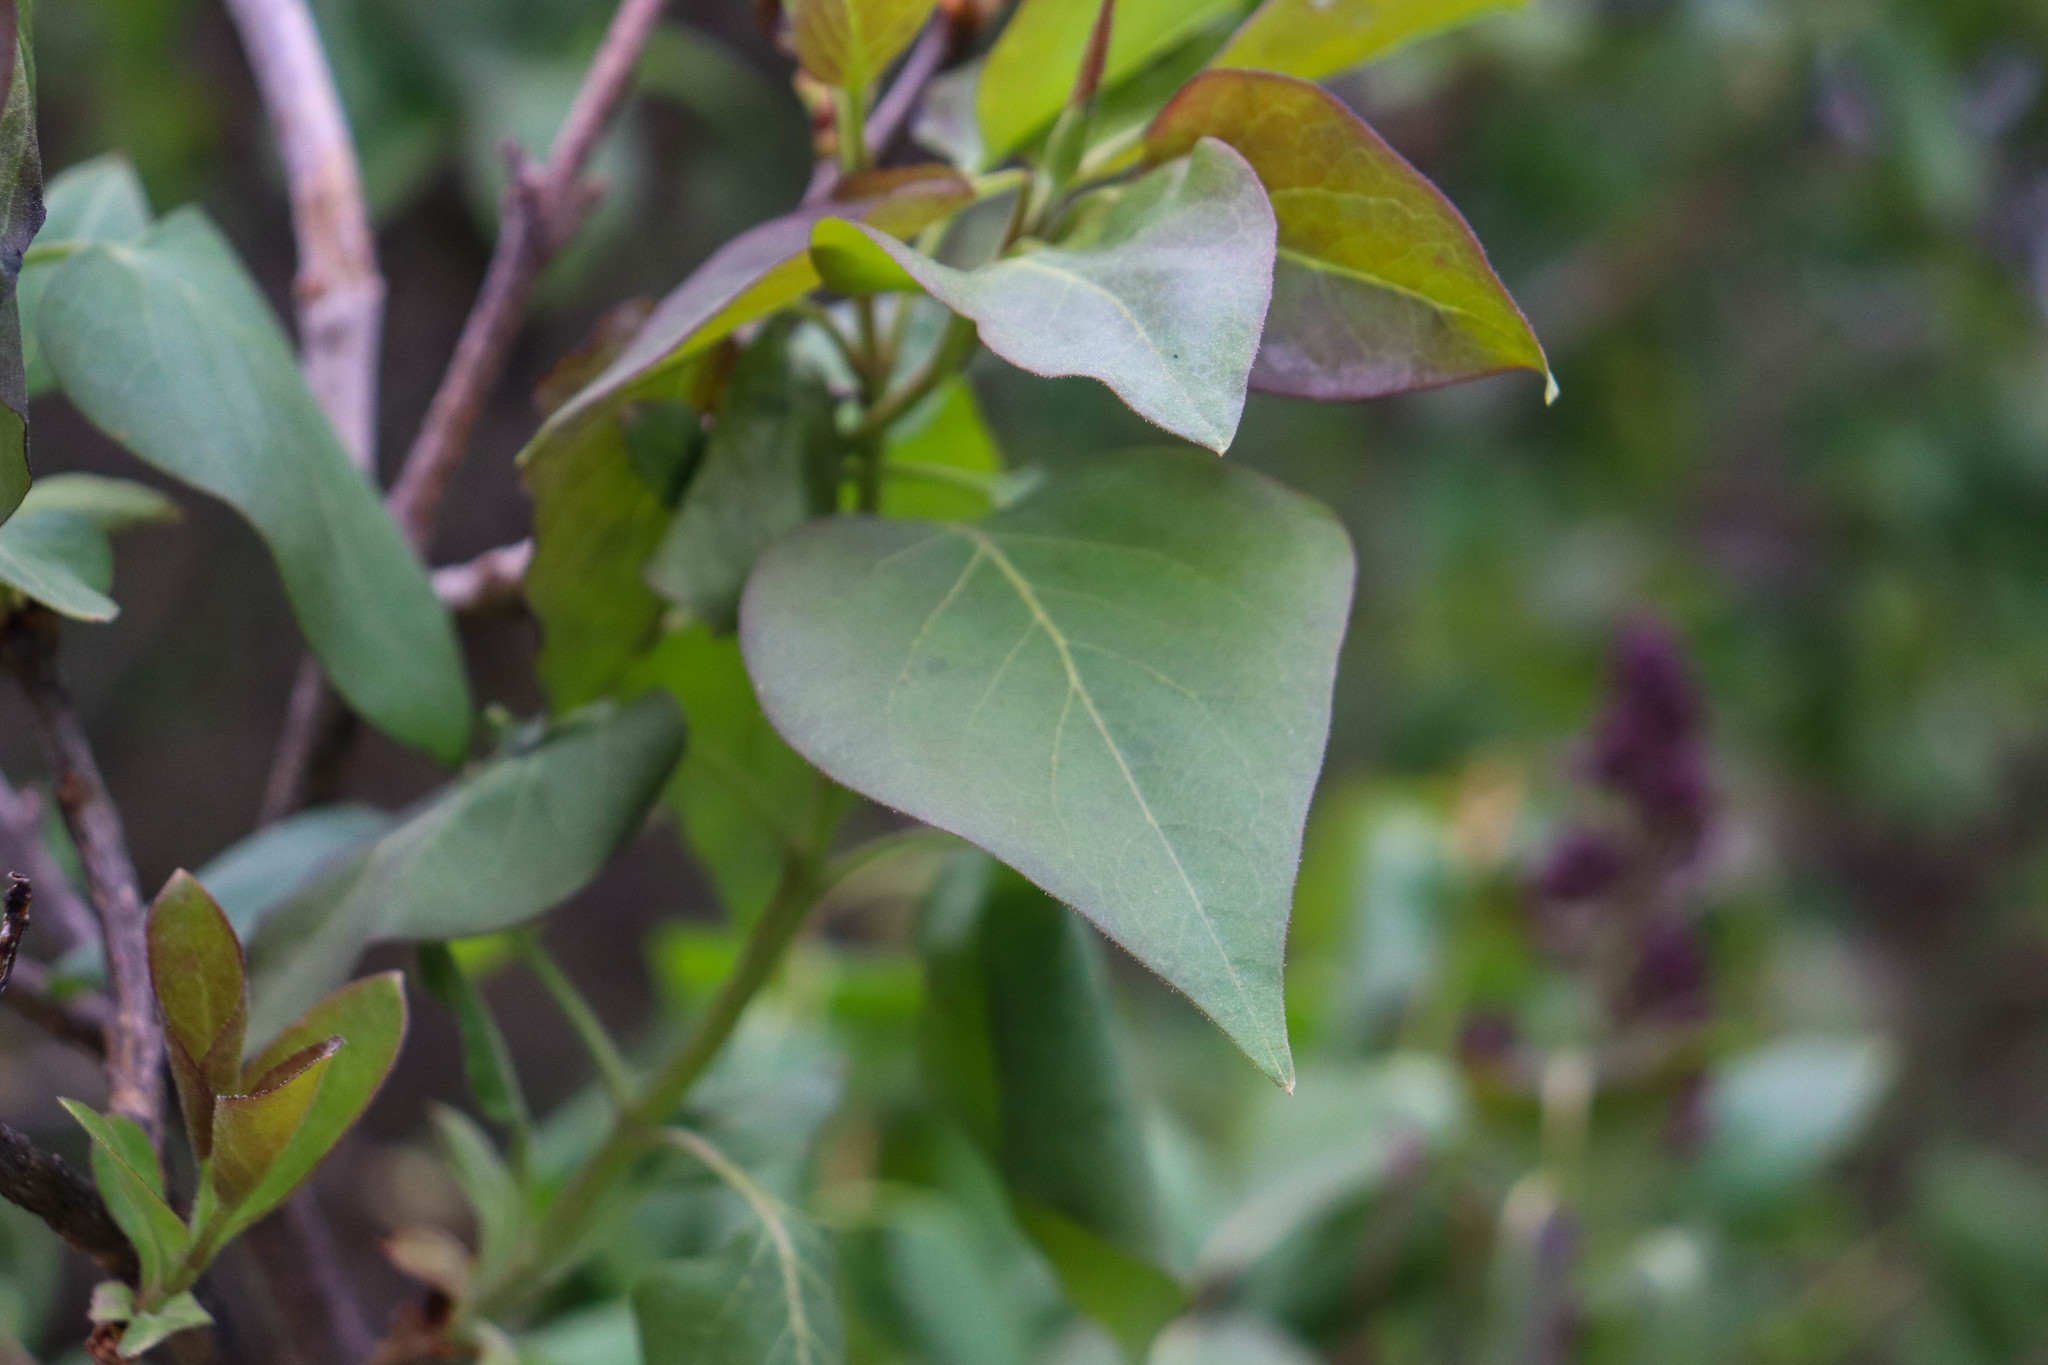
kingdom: Plantae
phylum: Tracheophyta
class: Magnoliopsida
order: Lamiales
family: Oleaceae
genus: Syringa
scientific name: Syringa vulgaris
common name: Common lilac
